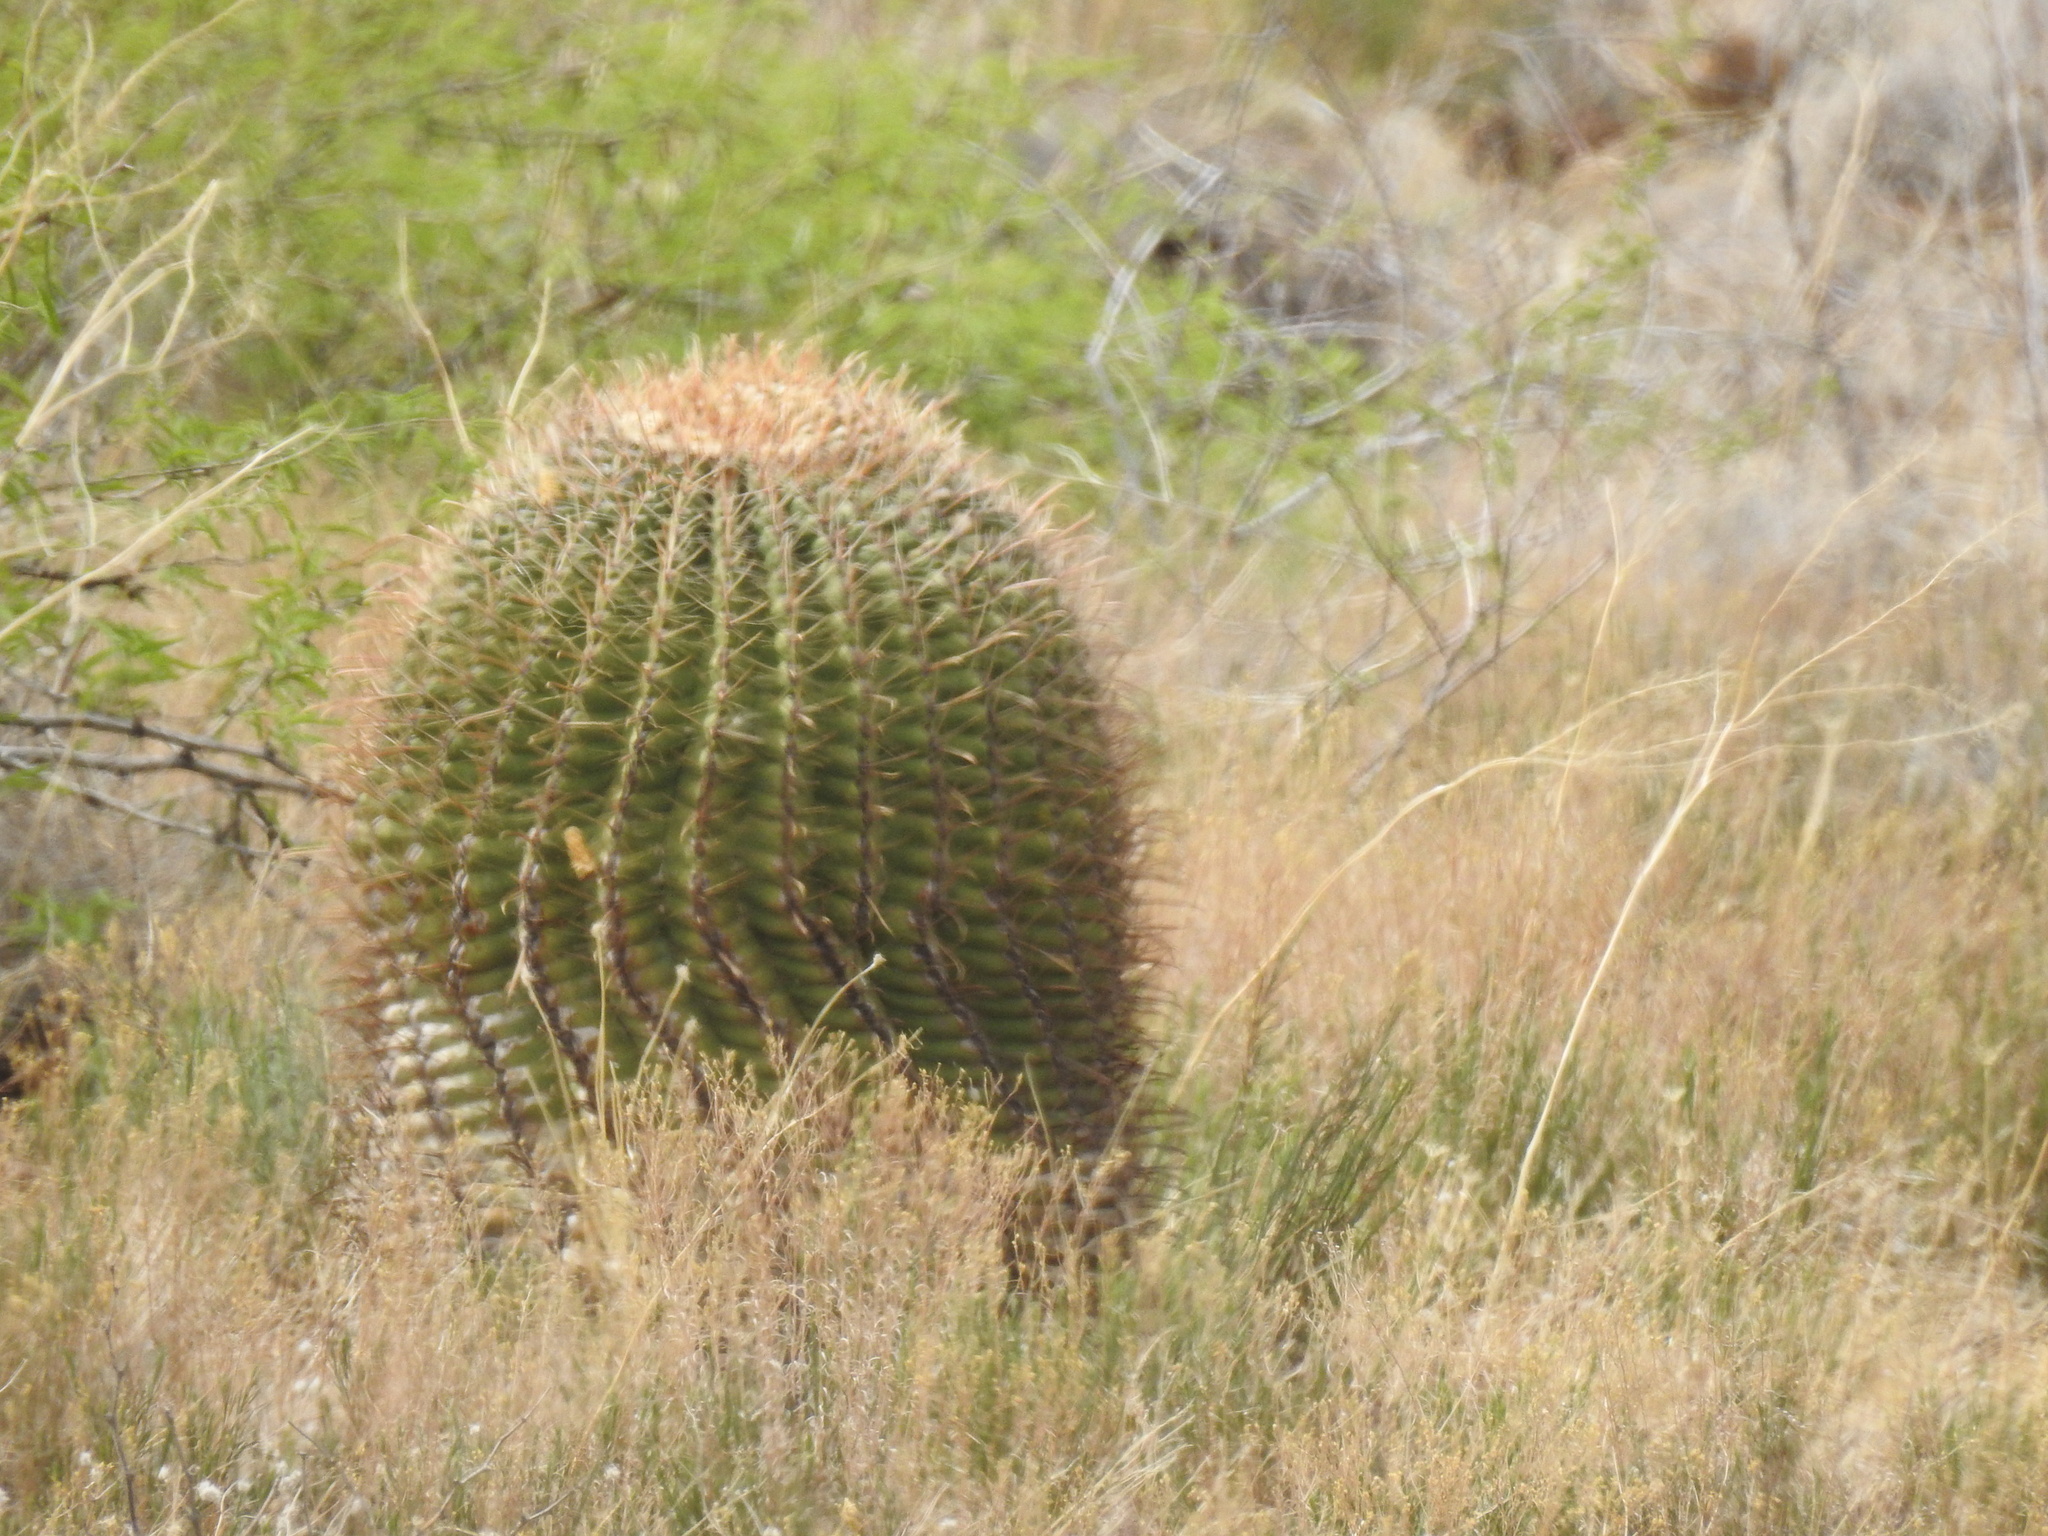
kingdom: Plantae
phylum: Tracheophyta
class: Magnoliopsida
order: Caryophyllales
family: Cactaceae
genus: Ferocactus
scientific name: Ferocactus wislizeni
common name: Candy barrel cactus
